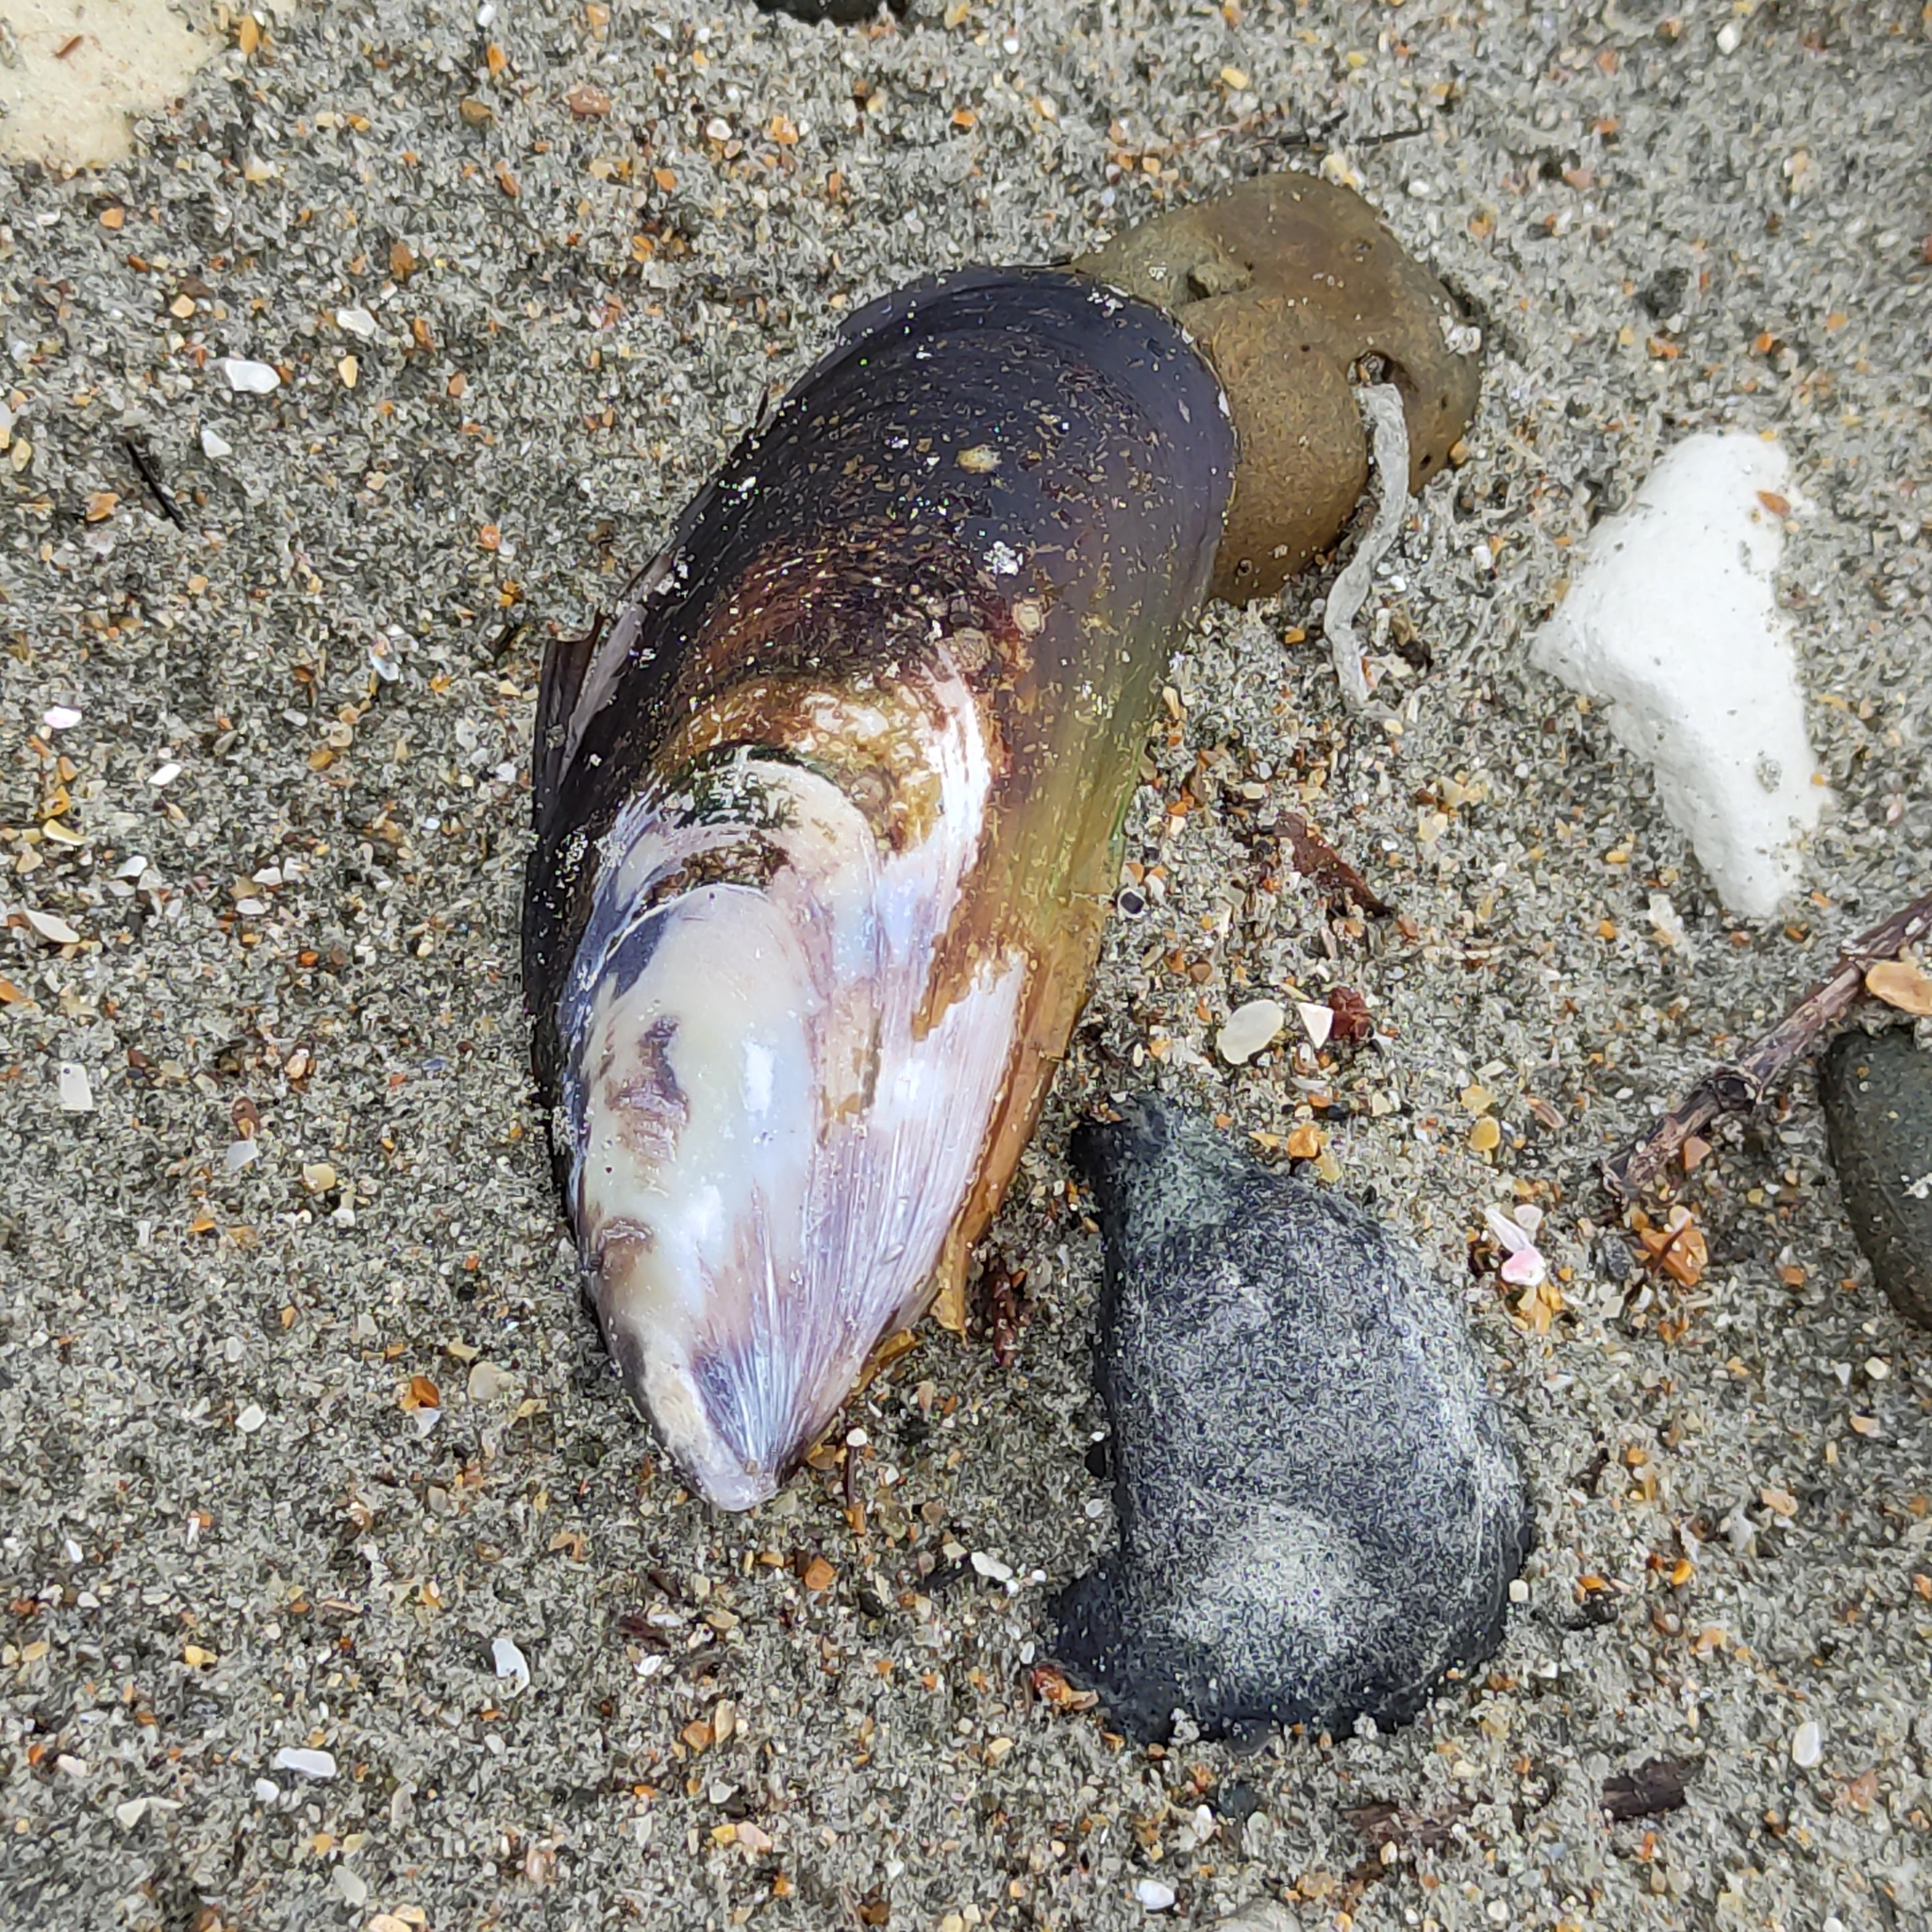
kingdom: Animalia
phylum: Mollusca
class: Bivalvia
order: Mytilida
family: Mytilidae
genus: Perna
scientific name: Perna canaliculus
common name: New zealand greenshelltm
